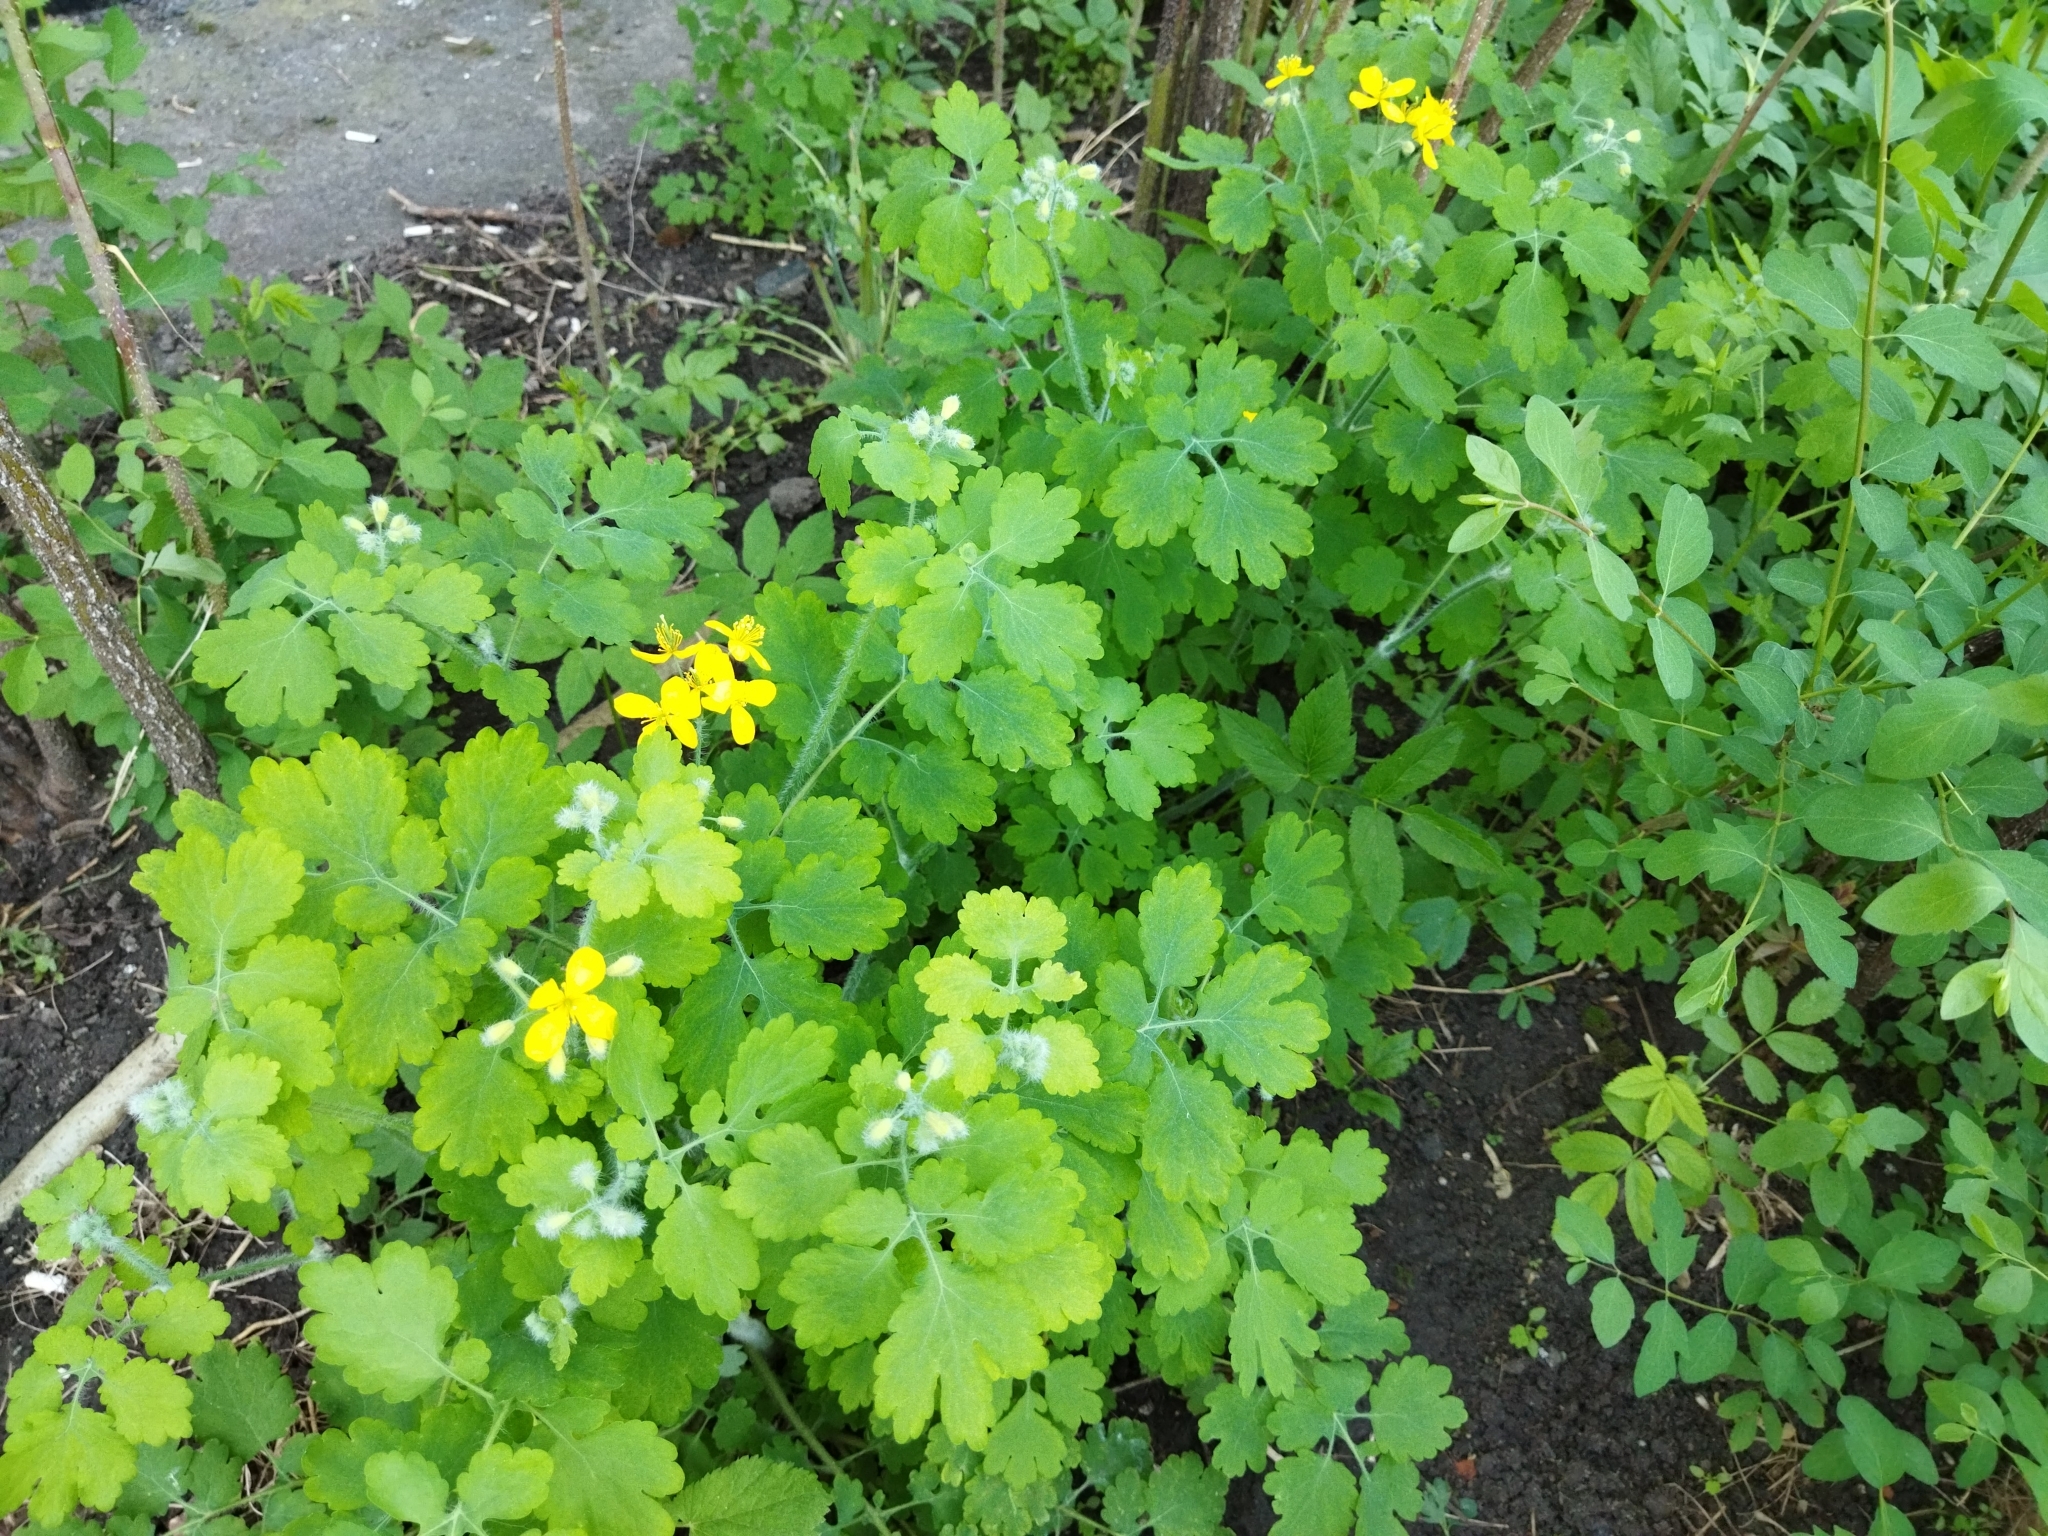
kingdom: Plantae
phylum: Tracheophyta
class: Magnoliopsida
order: Ranunculales
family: Papaveraceae
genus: Chelidonium
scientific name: Chelidonium majus
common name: Greater celandine
